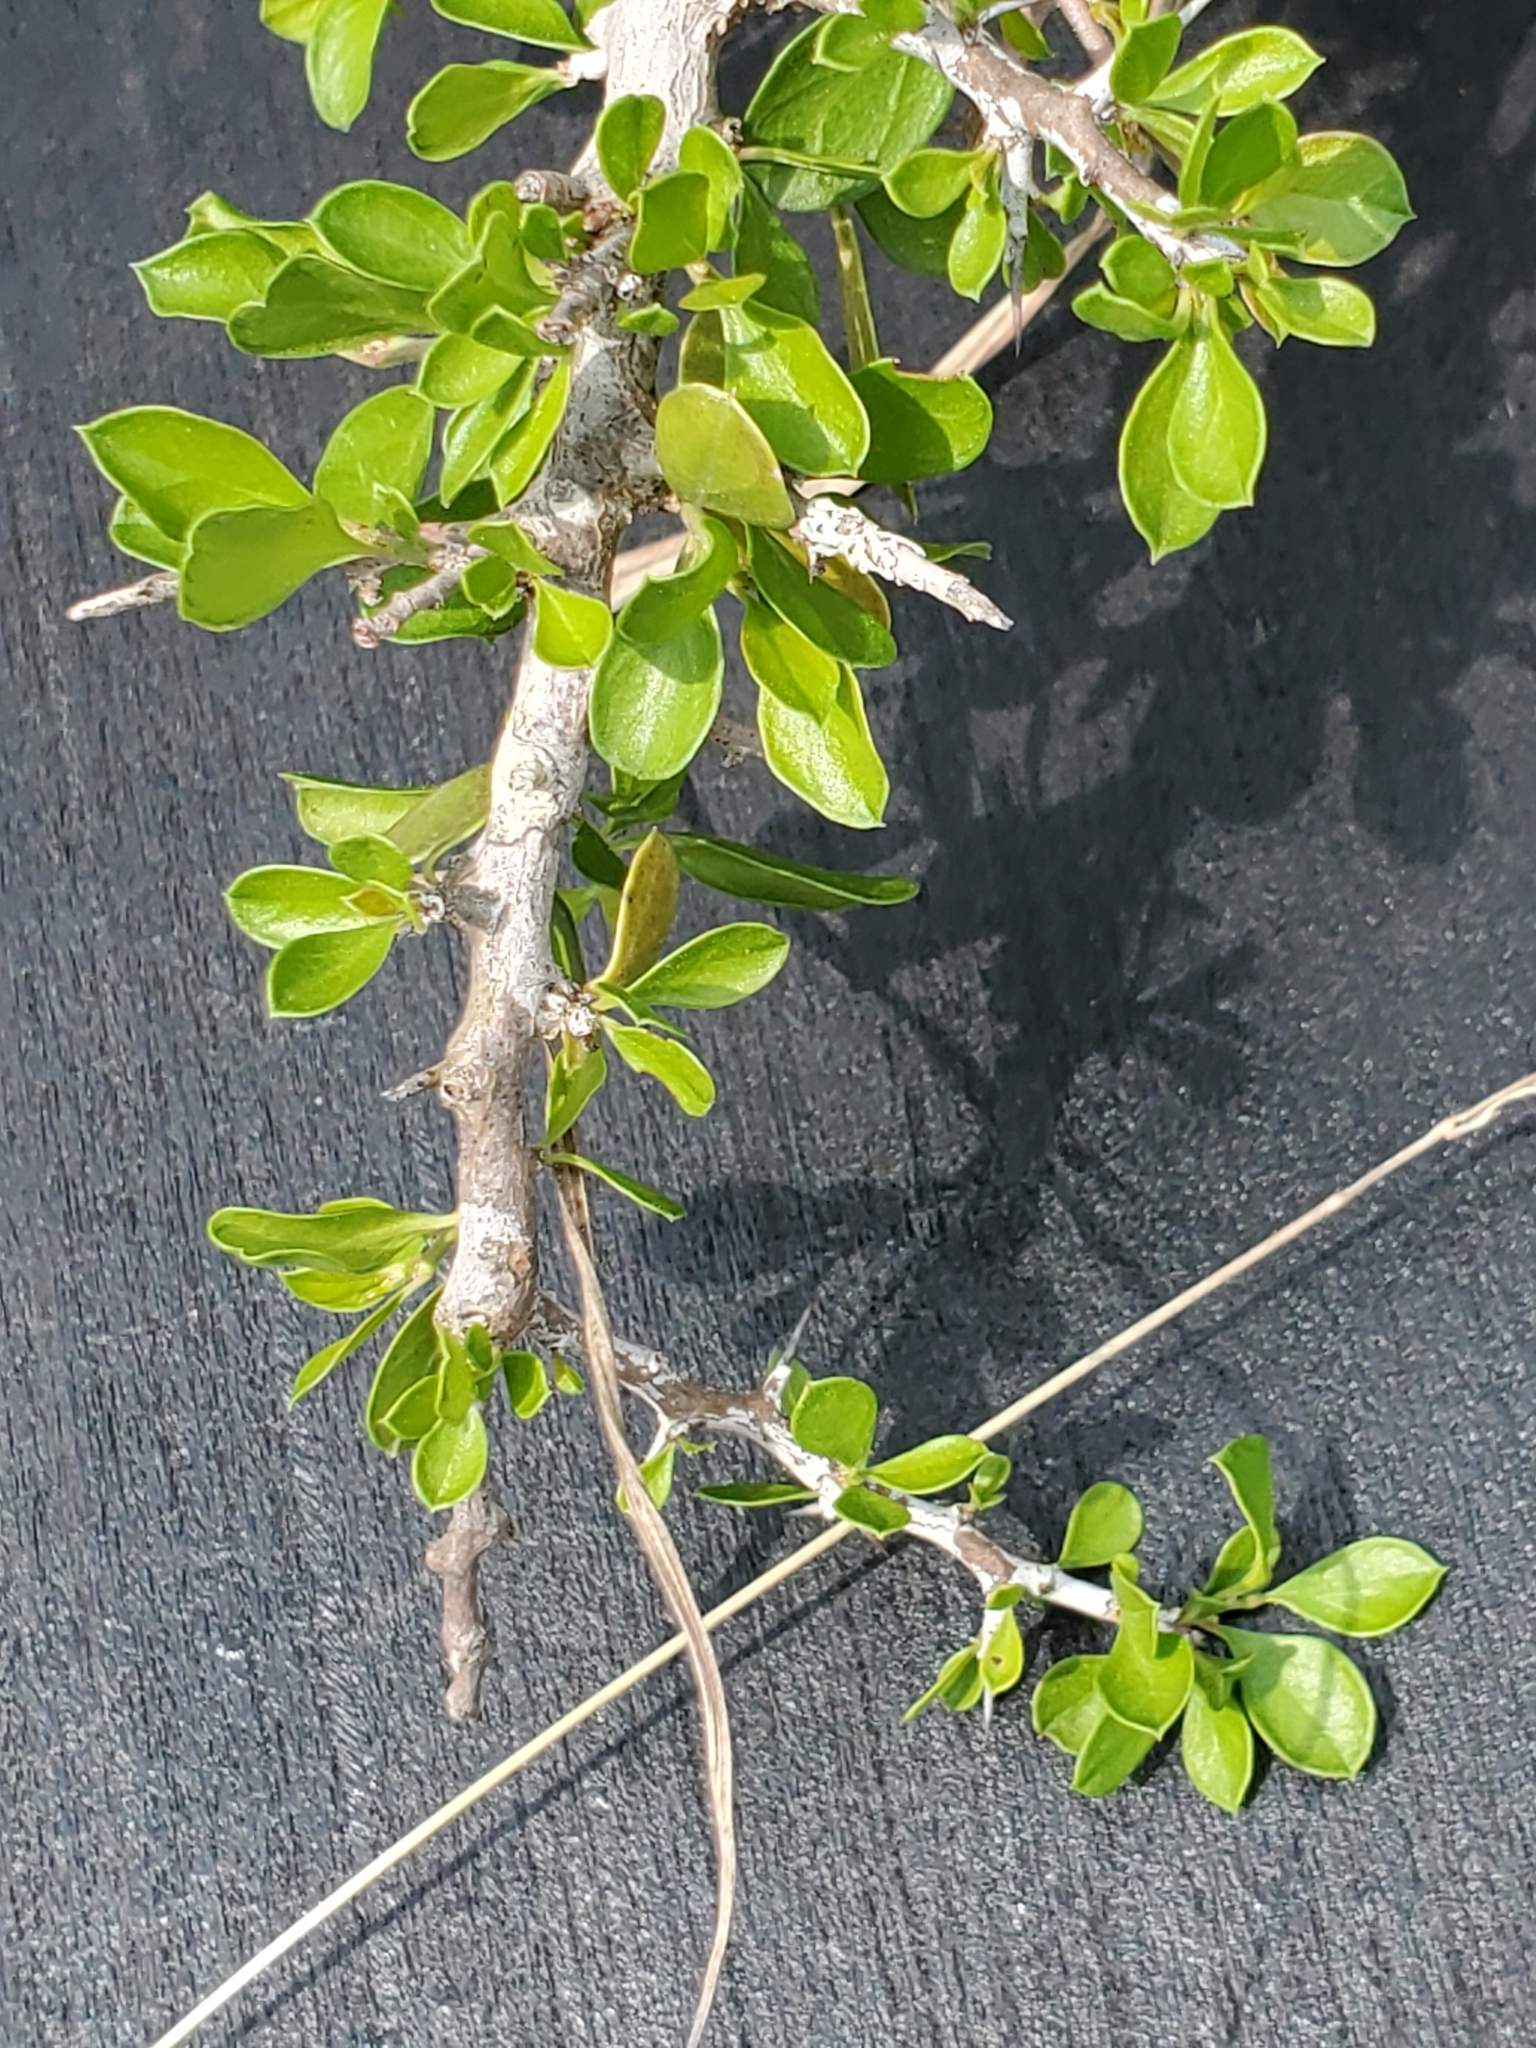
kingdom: Plantae
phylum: Tracheophyta
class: Magnoliopsida
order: Rosales
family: Rhamnaceae
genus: Condalia
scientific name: Condalia viridis
